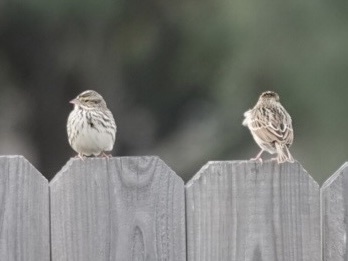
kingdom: Animalia
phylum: Chordata
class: Aves
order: Passeriformes
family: Passerellidae
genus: Passerculus
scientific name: Passerculus sandwichensis
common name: Savannah sparrow
